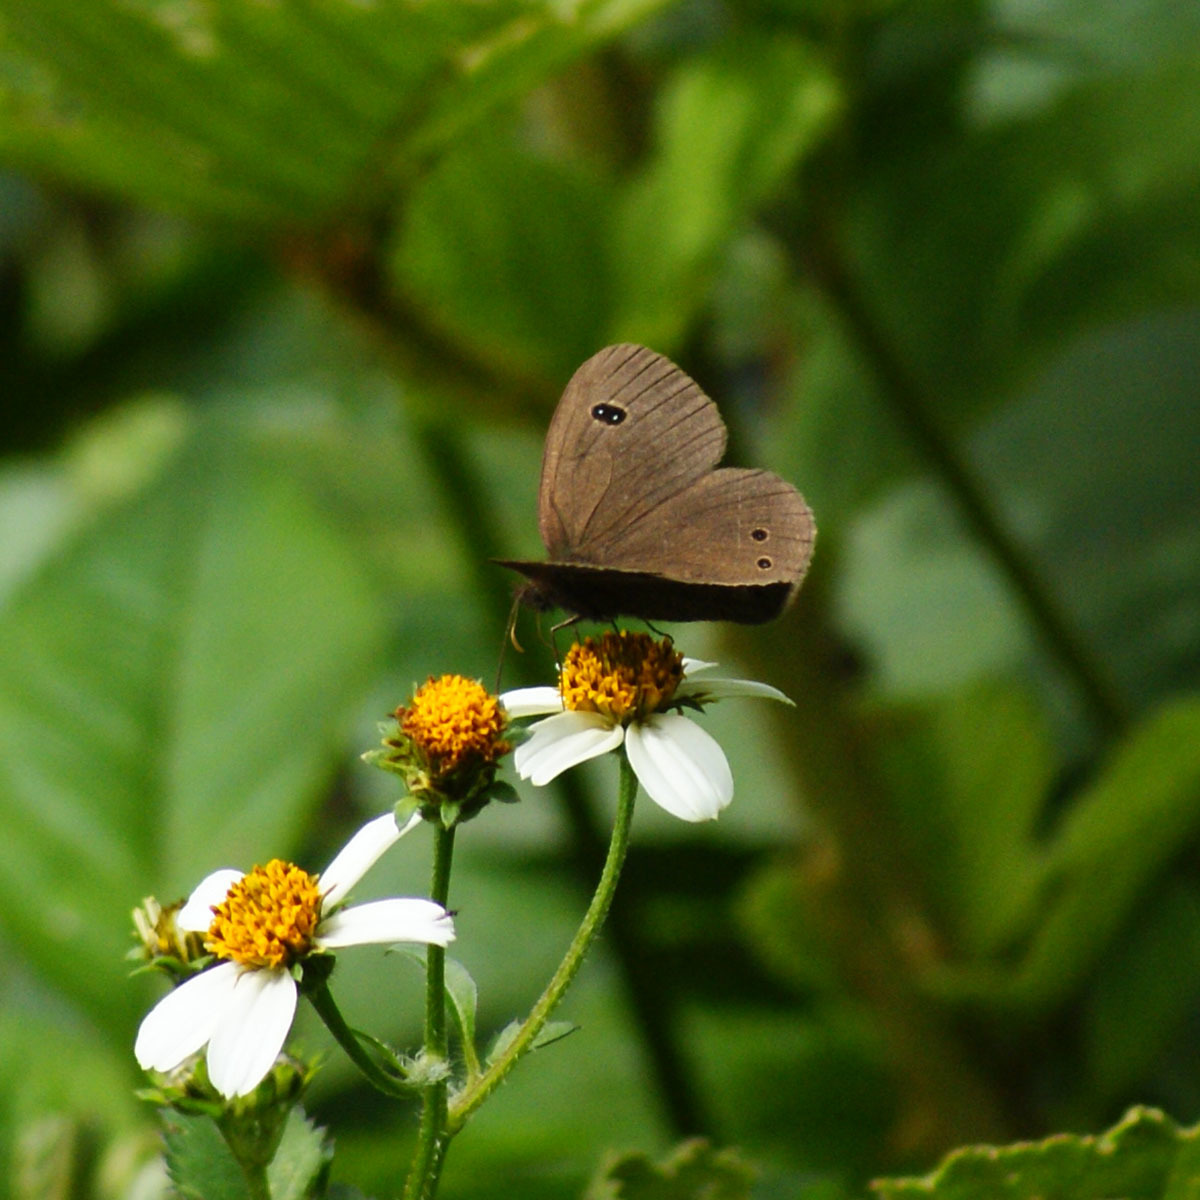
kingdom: Animalia
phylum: Arthropoda
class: Insecta
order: Lepidoptera
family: Nymphalidae
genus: Ypthima
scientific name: Ypthima ypthimoides
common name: Palni four-ring
